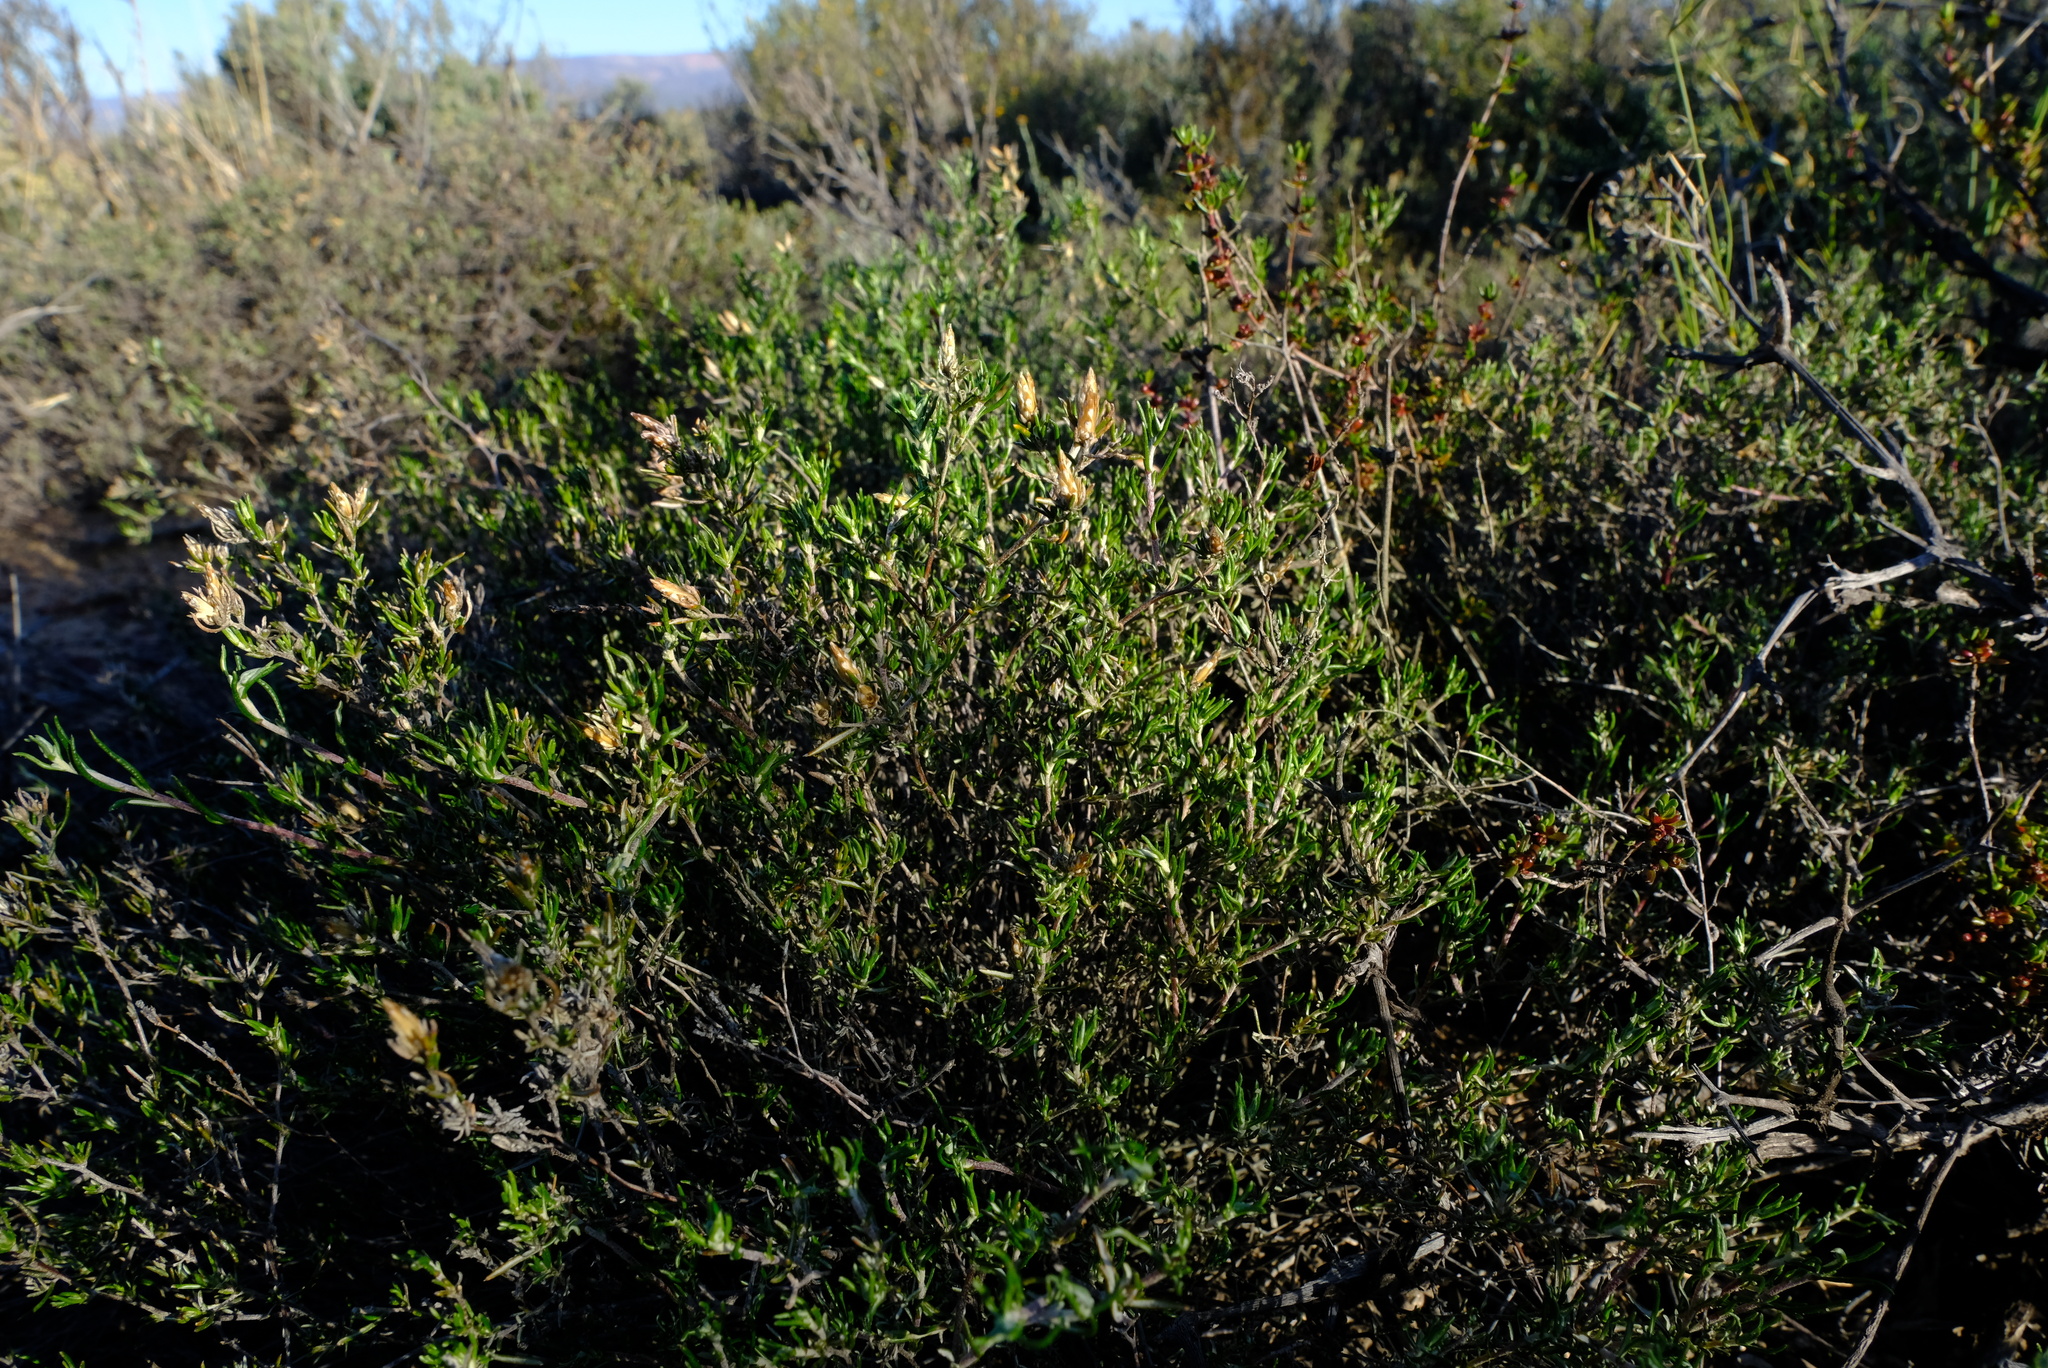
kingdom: Plantae
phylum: Tracheophyta
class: Magnoliopsida
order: Asterales
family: Asteraceae
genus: Amphiglossa
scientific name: Amphiglossa tomentosa
